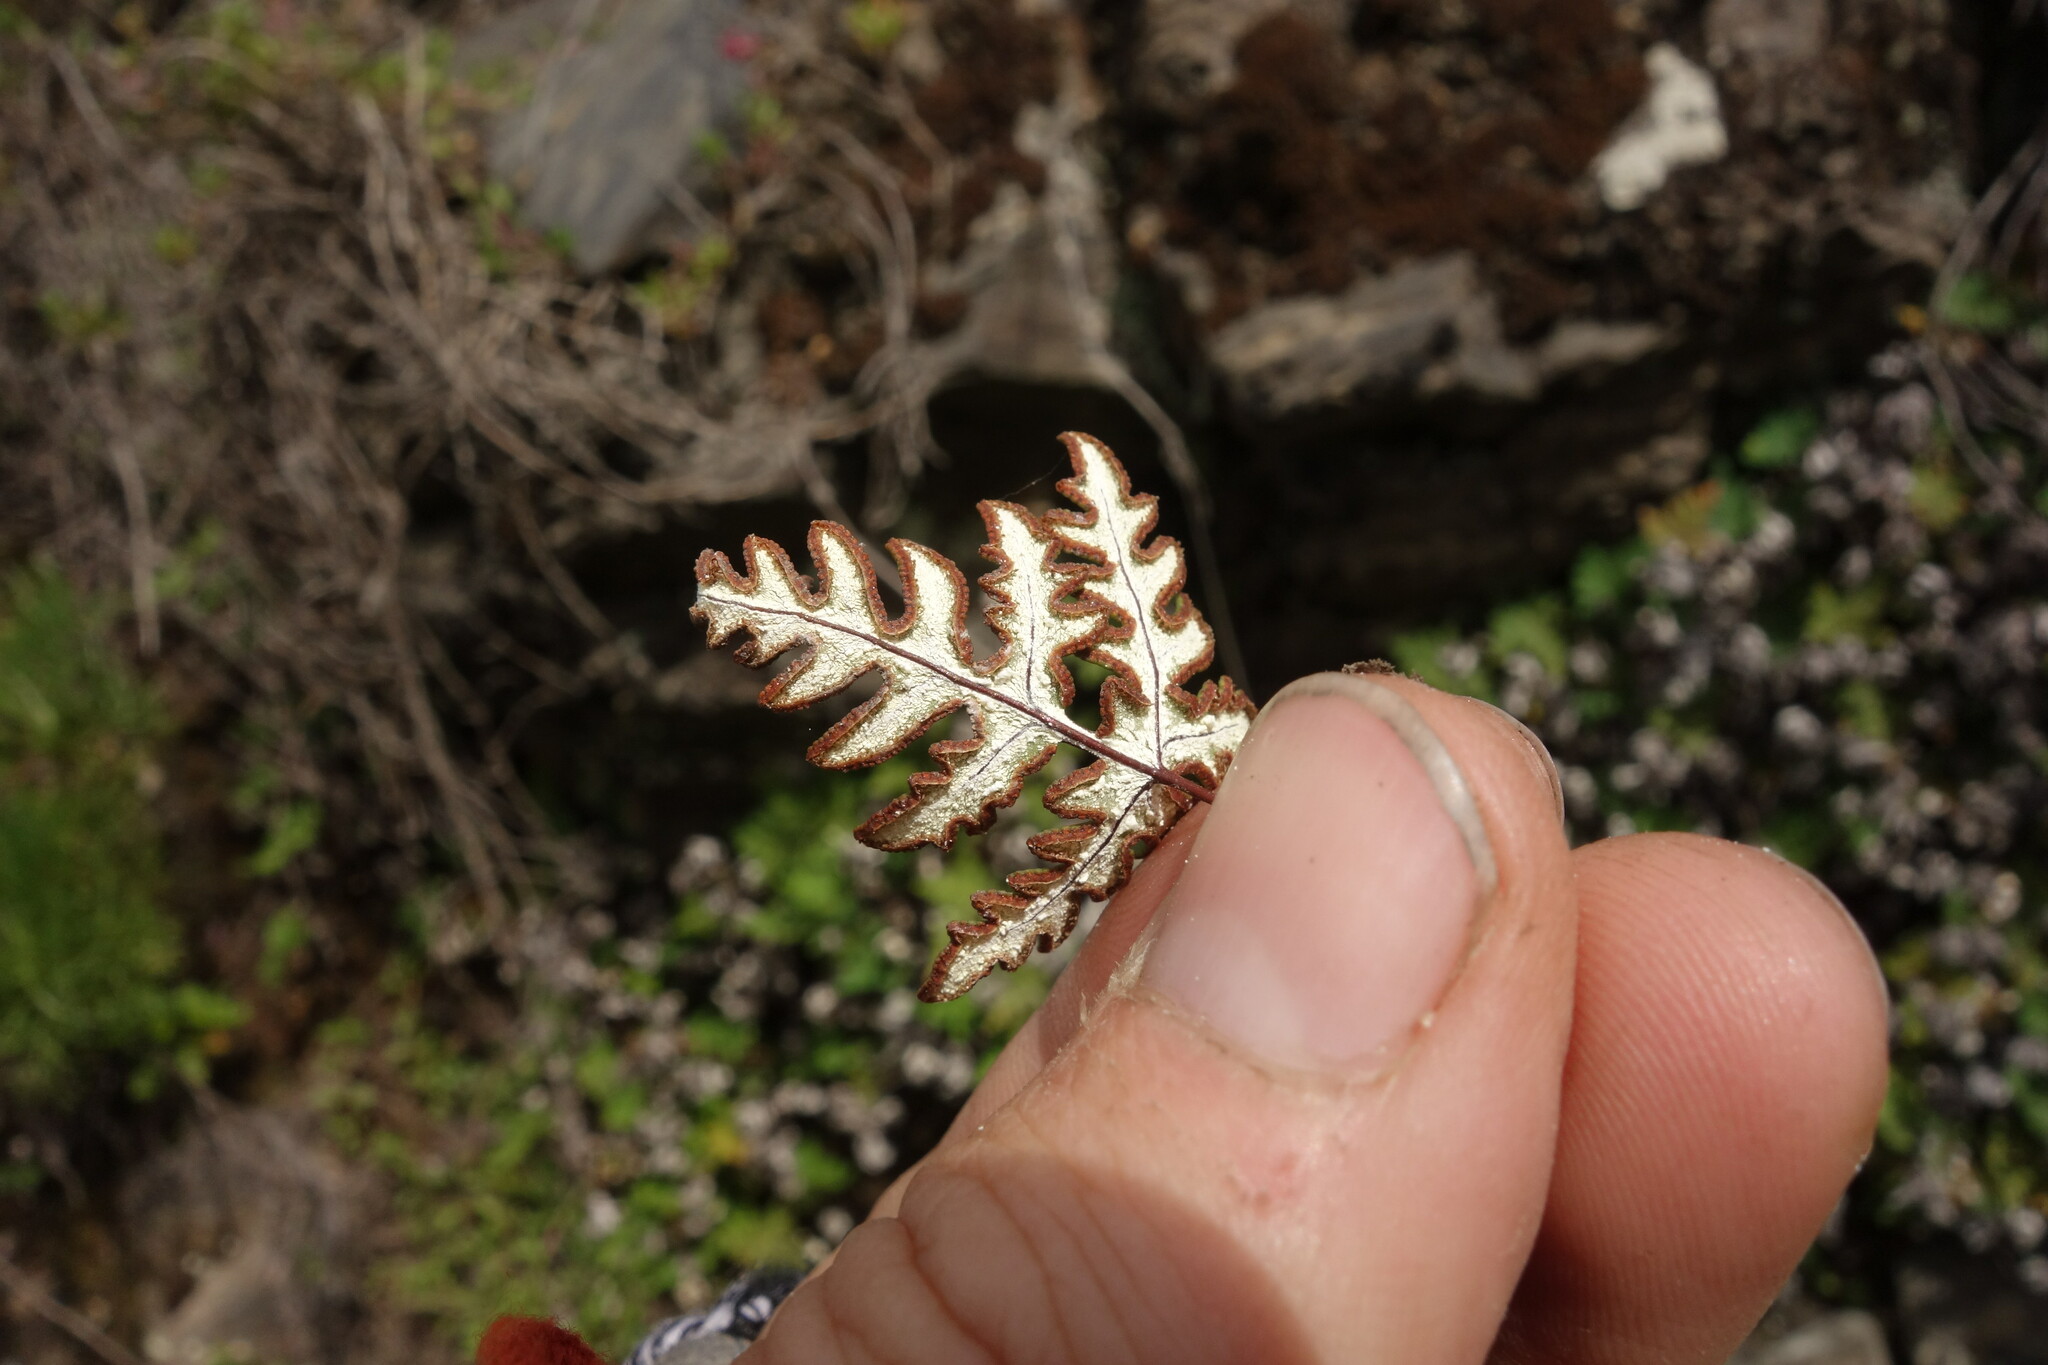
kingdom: Plantae
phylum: Tracheophyta
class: Polypodiopsida
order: Polypodiales
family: Pteridaceae
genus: Aleuritopteris
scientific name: Aleuritopteris argentea
